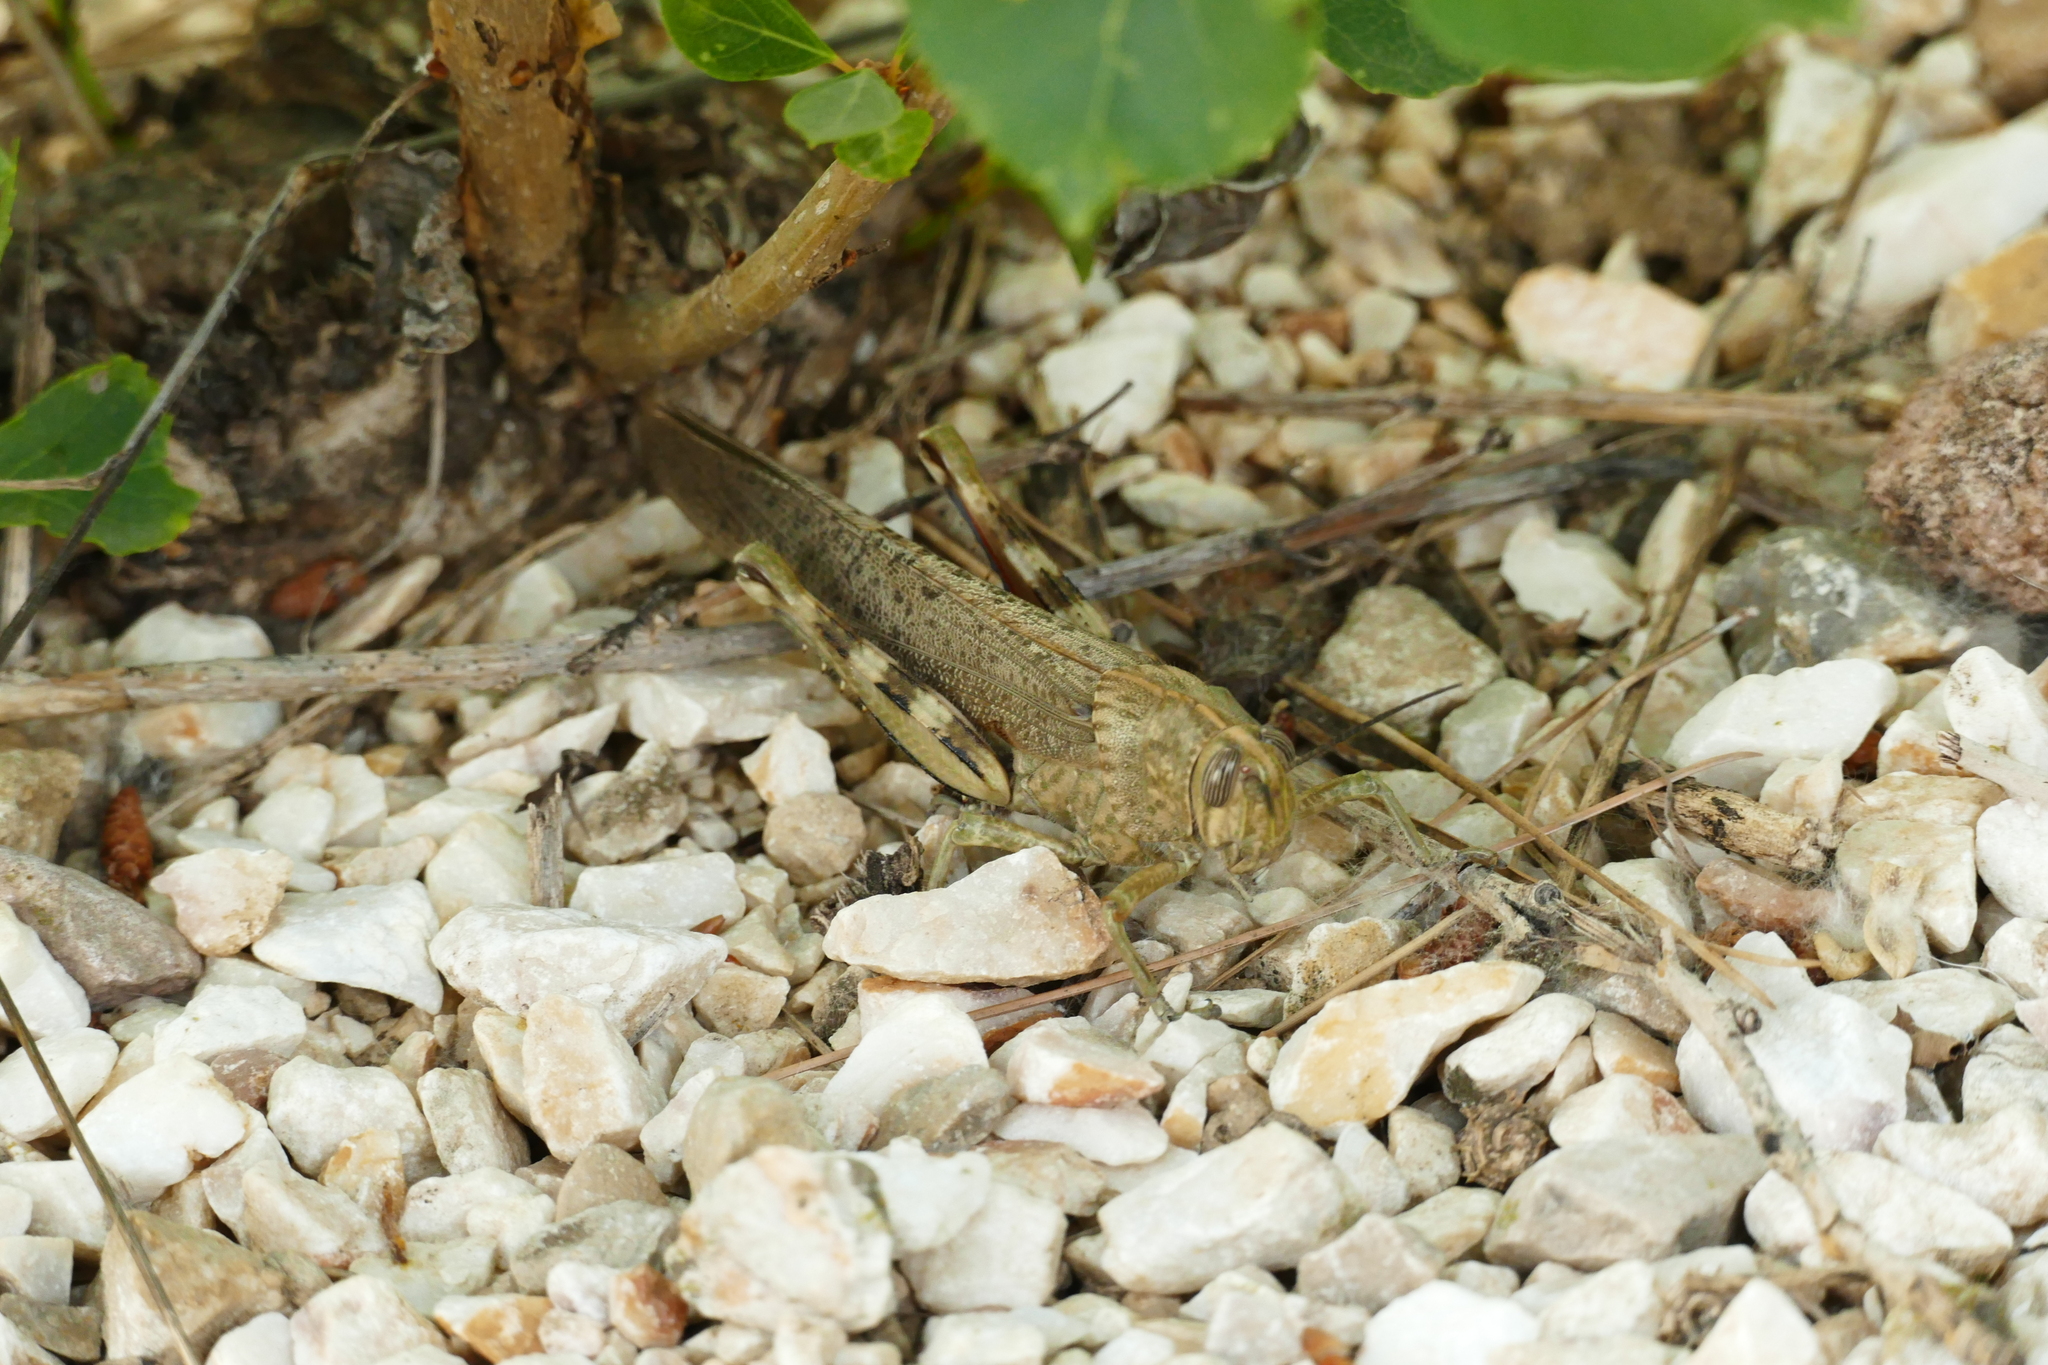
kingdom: Animalia
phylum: Arthropoda
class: Insecta
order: Orthoptera
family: Acrididae
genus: Anacridium
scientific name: Anacridium aegyptium
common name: Egyptian grasshopper
